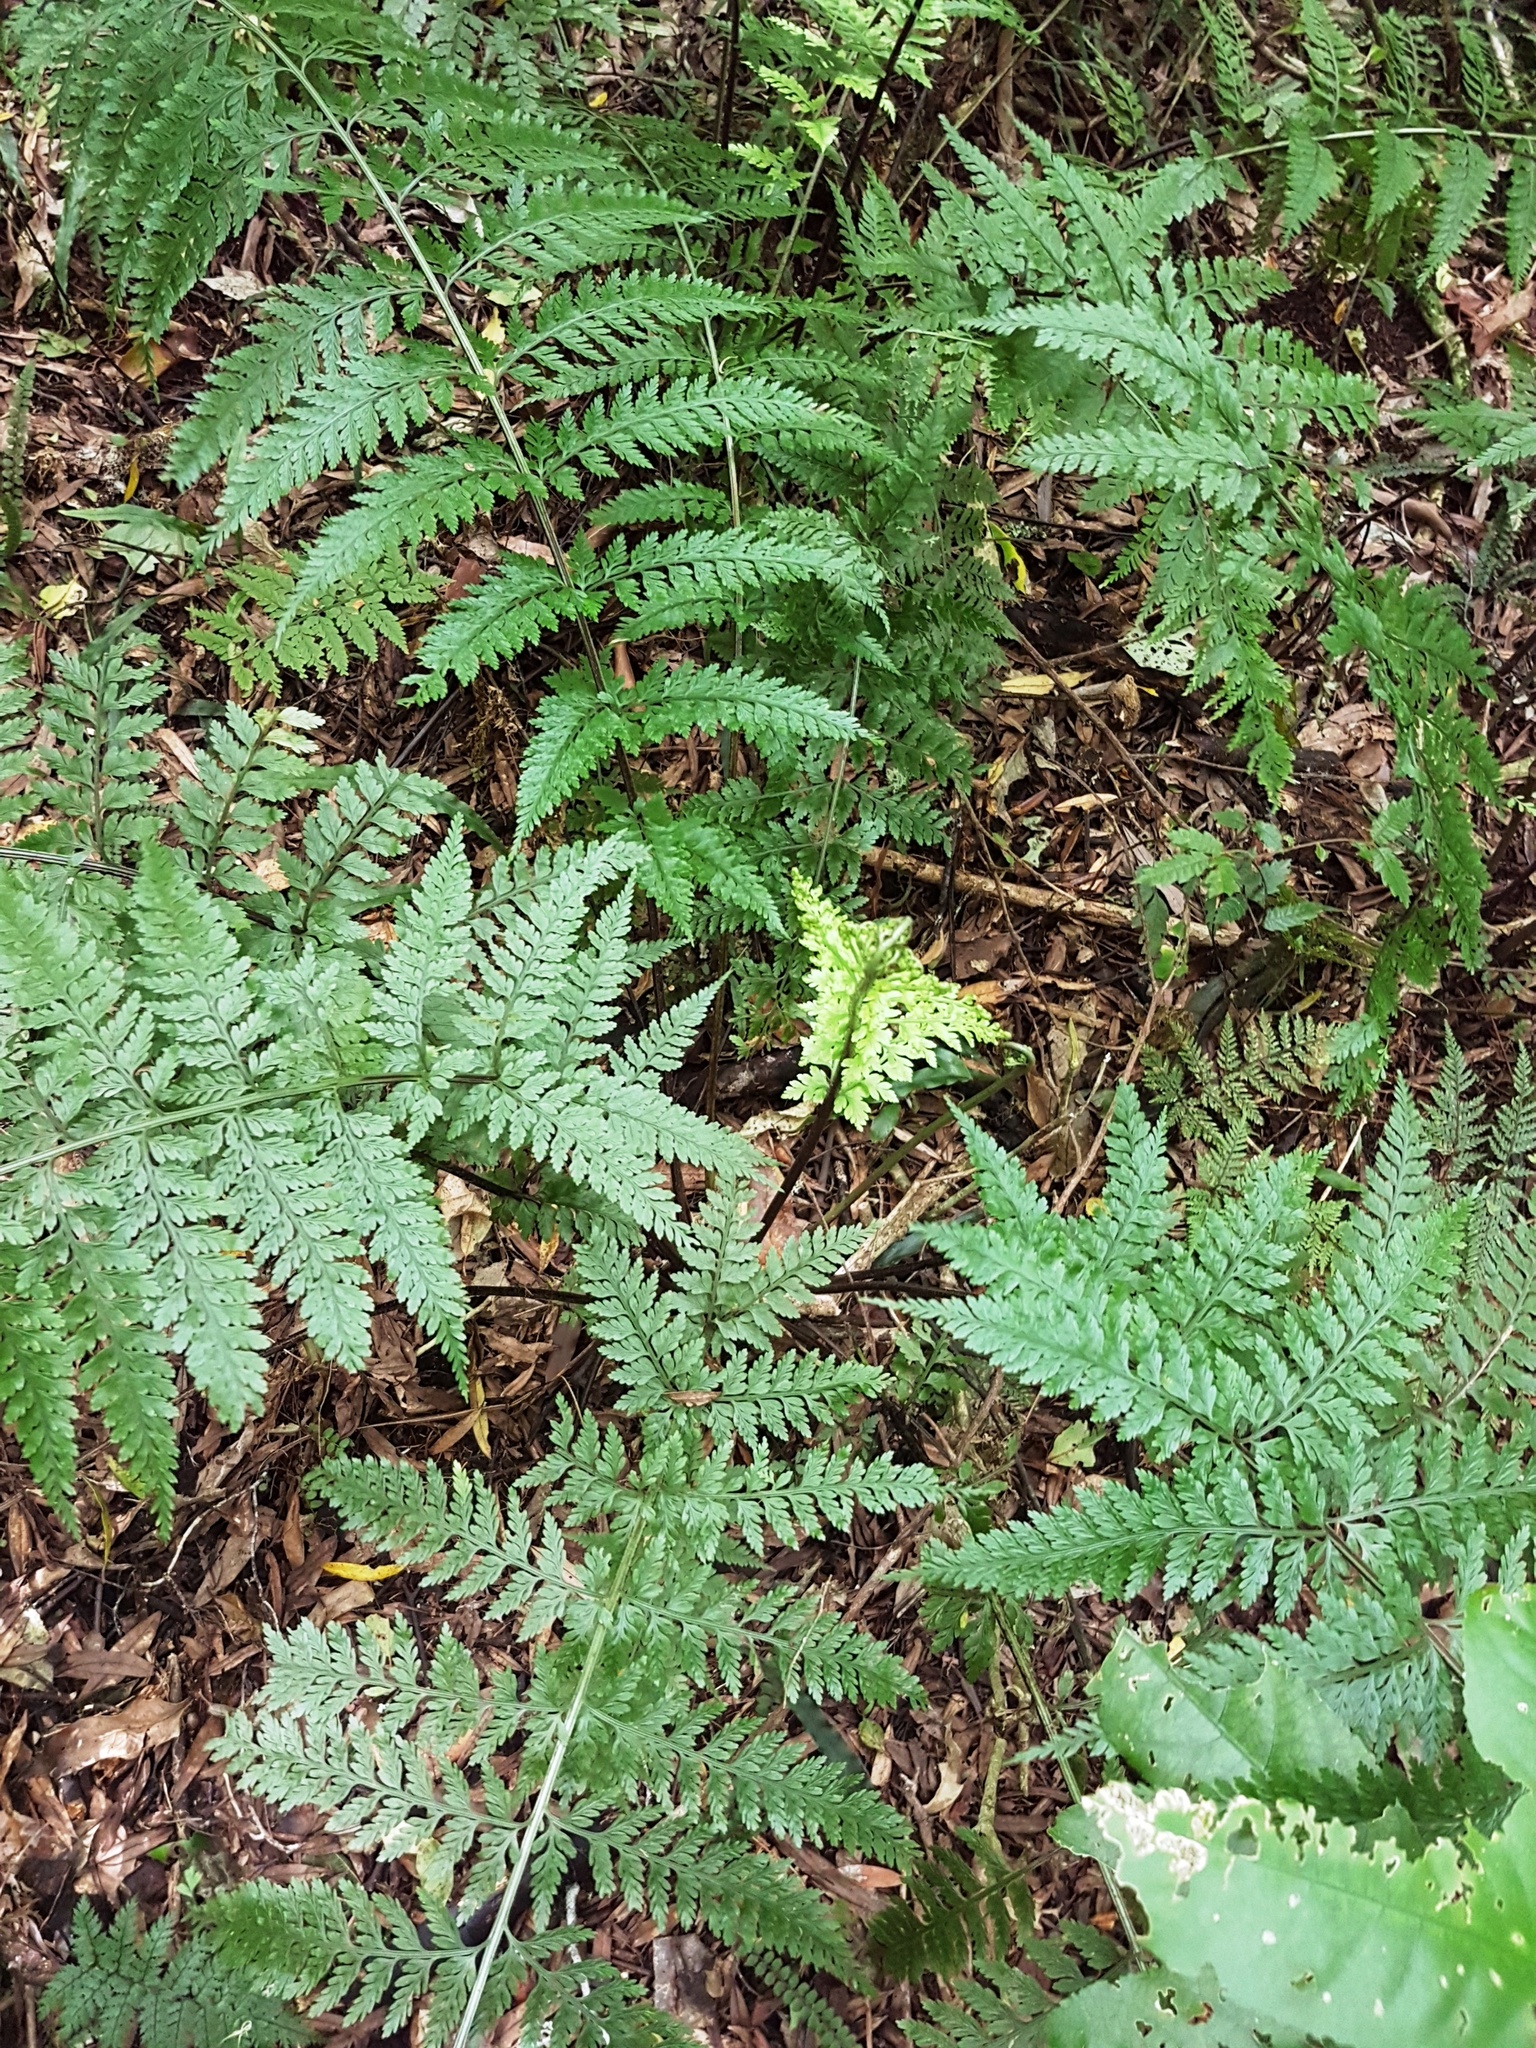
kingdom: Plantae
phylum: Tracheophyta
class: Polypodiopsida
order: Polypodiales
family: Aspleniaceae
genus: Asplenium
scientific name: Asplenium
